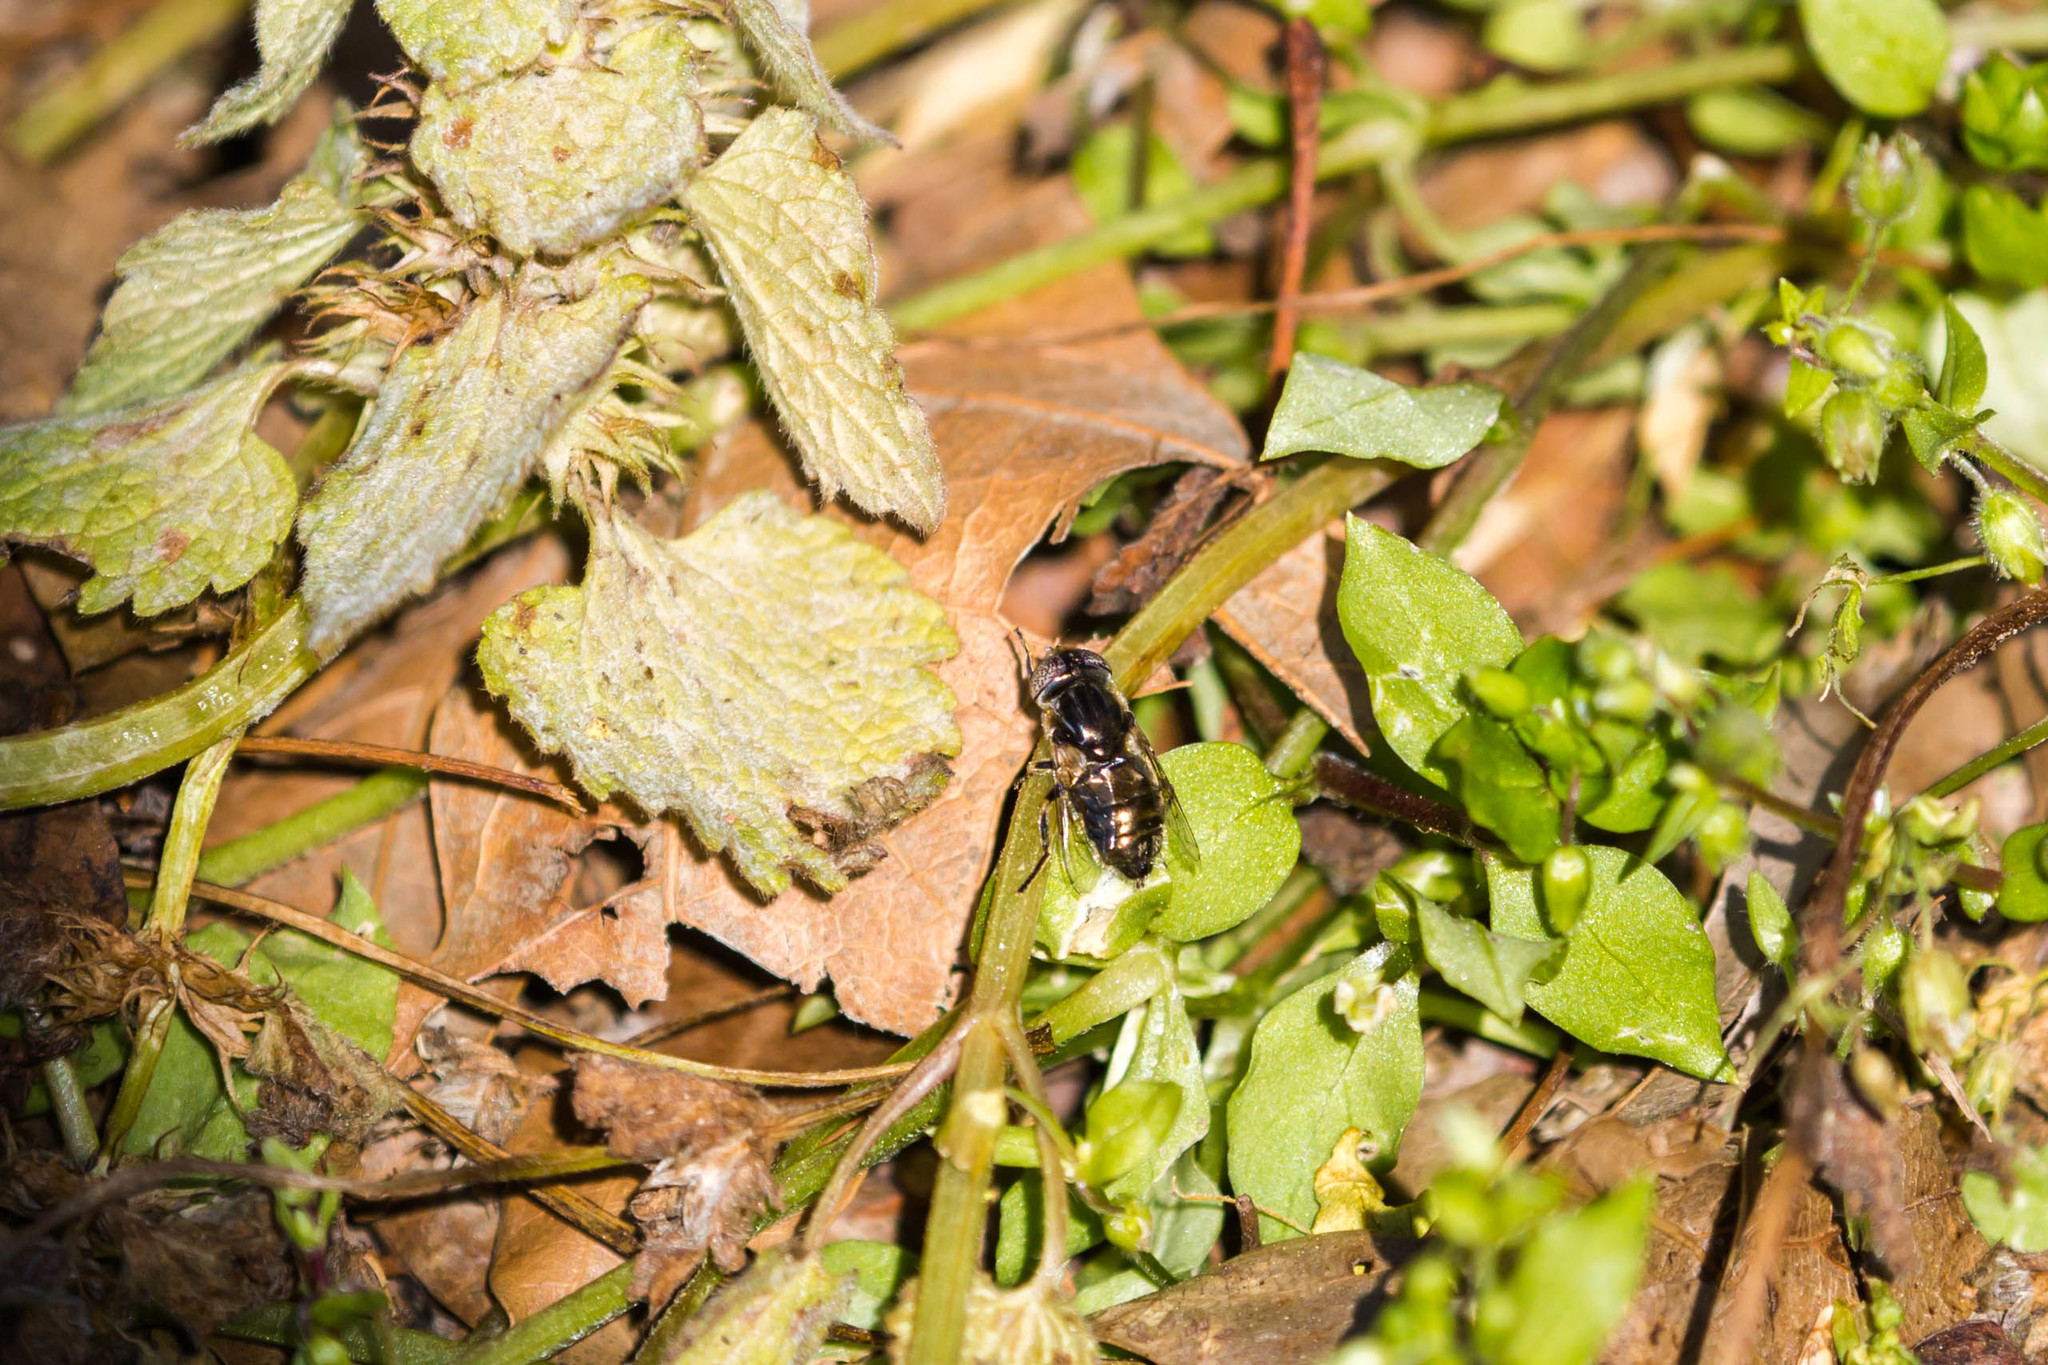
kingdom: Animalia
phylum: Arthropoda
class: Insecta
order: Diptera
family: Syrphidae
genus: Eristalinus
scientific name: Eristalinus aeneus
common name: Syrphid fly
